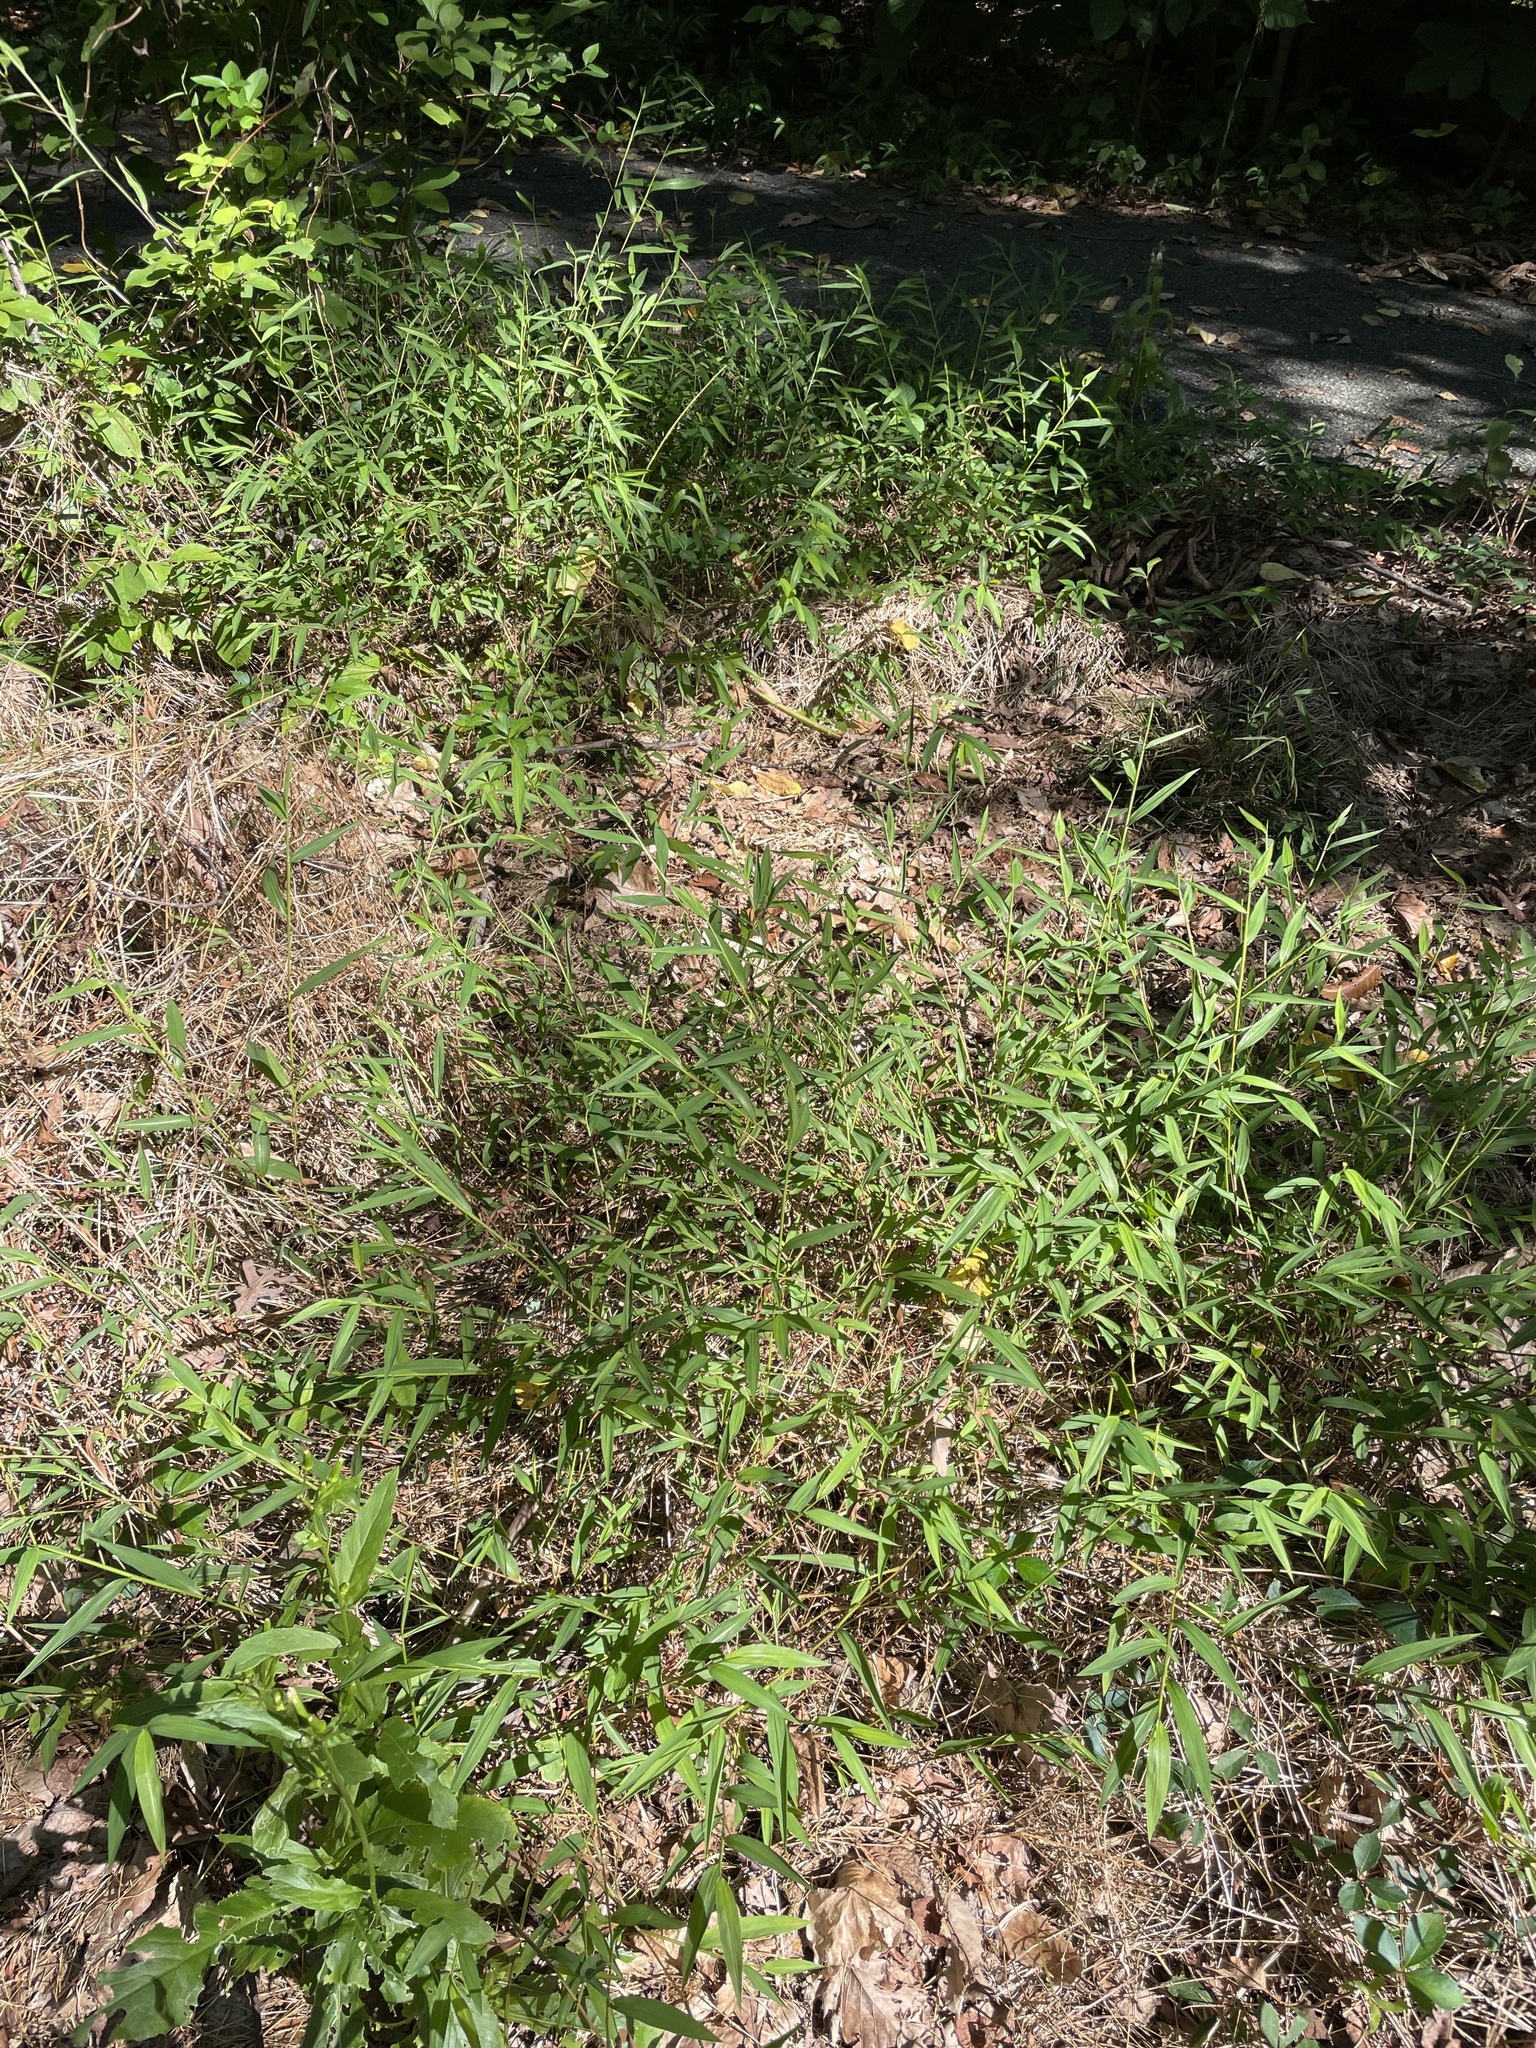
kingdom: Plantae
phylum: Tracheophyta
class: Liliopsida
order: Poales
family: Poaceae
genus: Microstegium
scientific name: Microstegium vimineum
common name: Japanese stiltgrass
